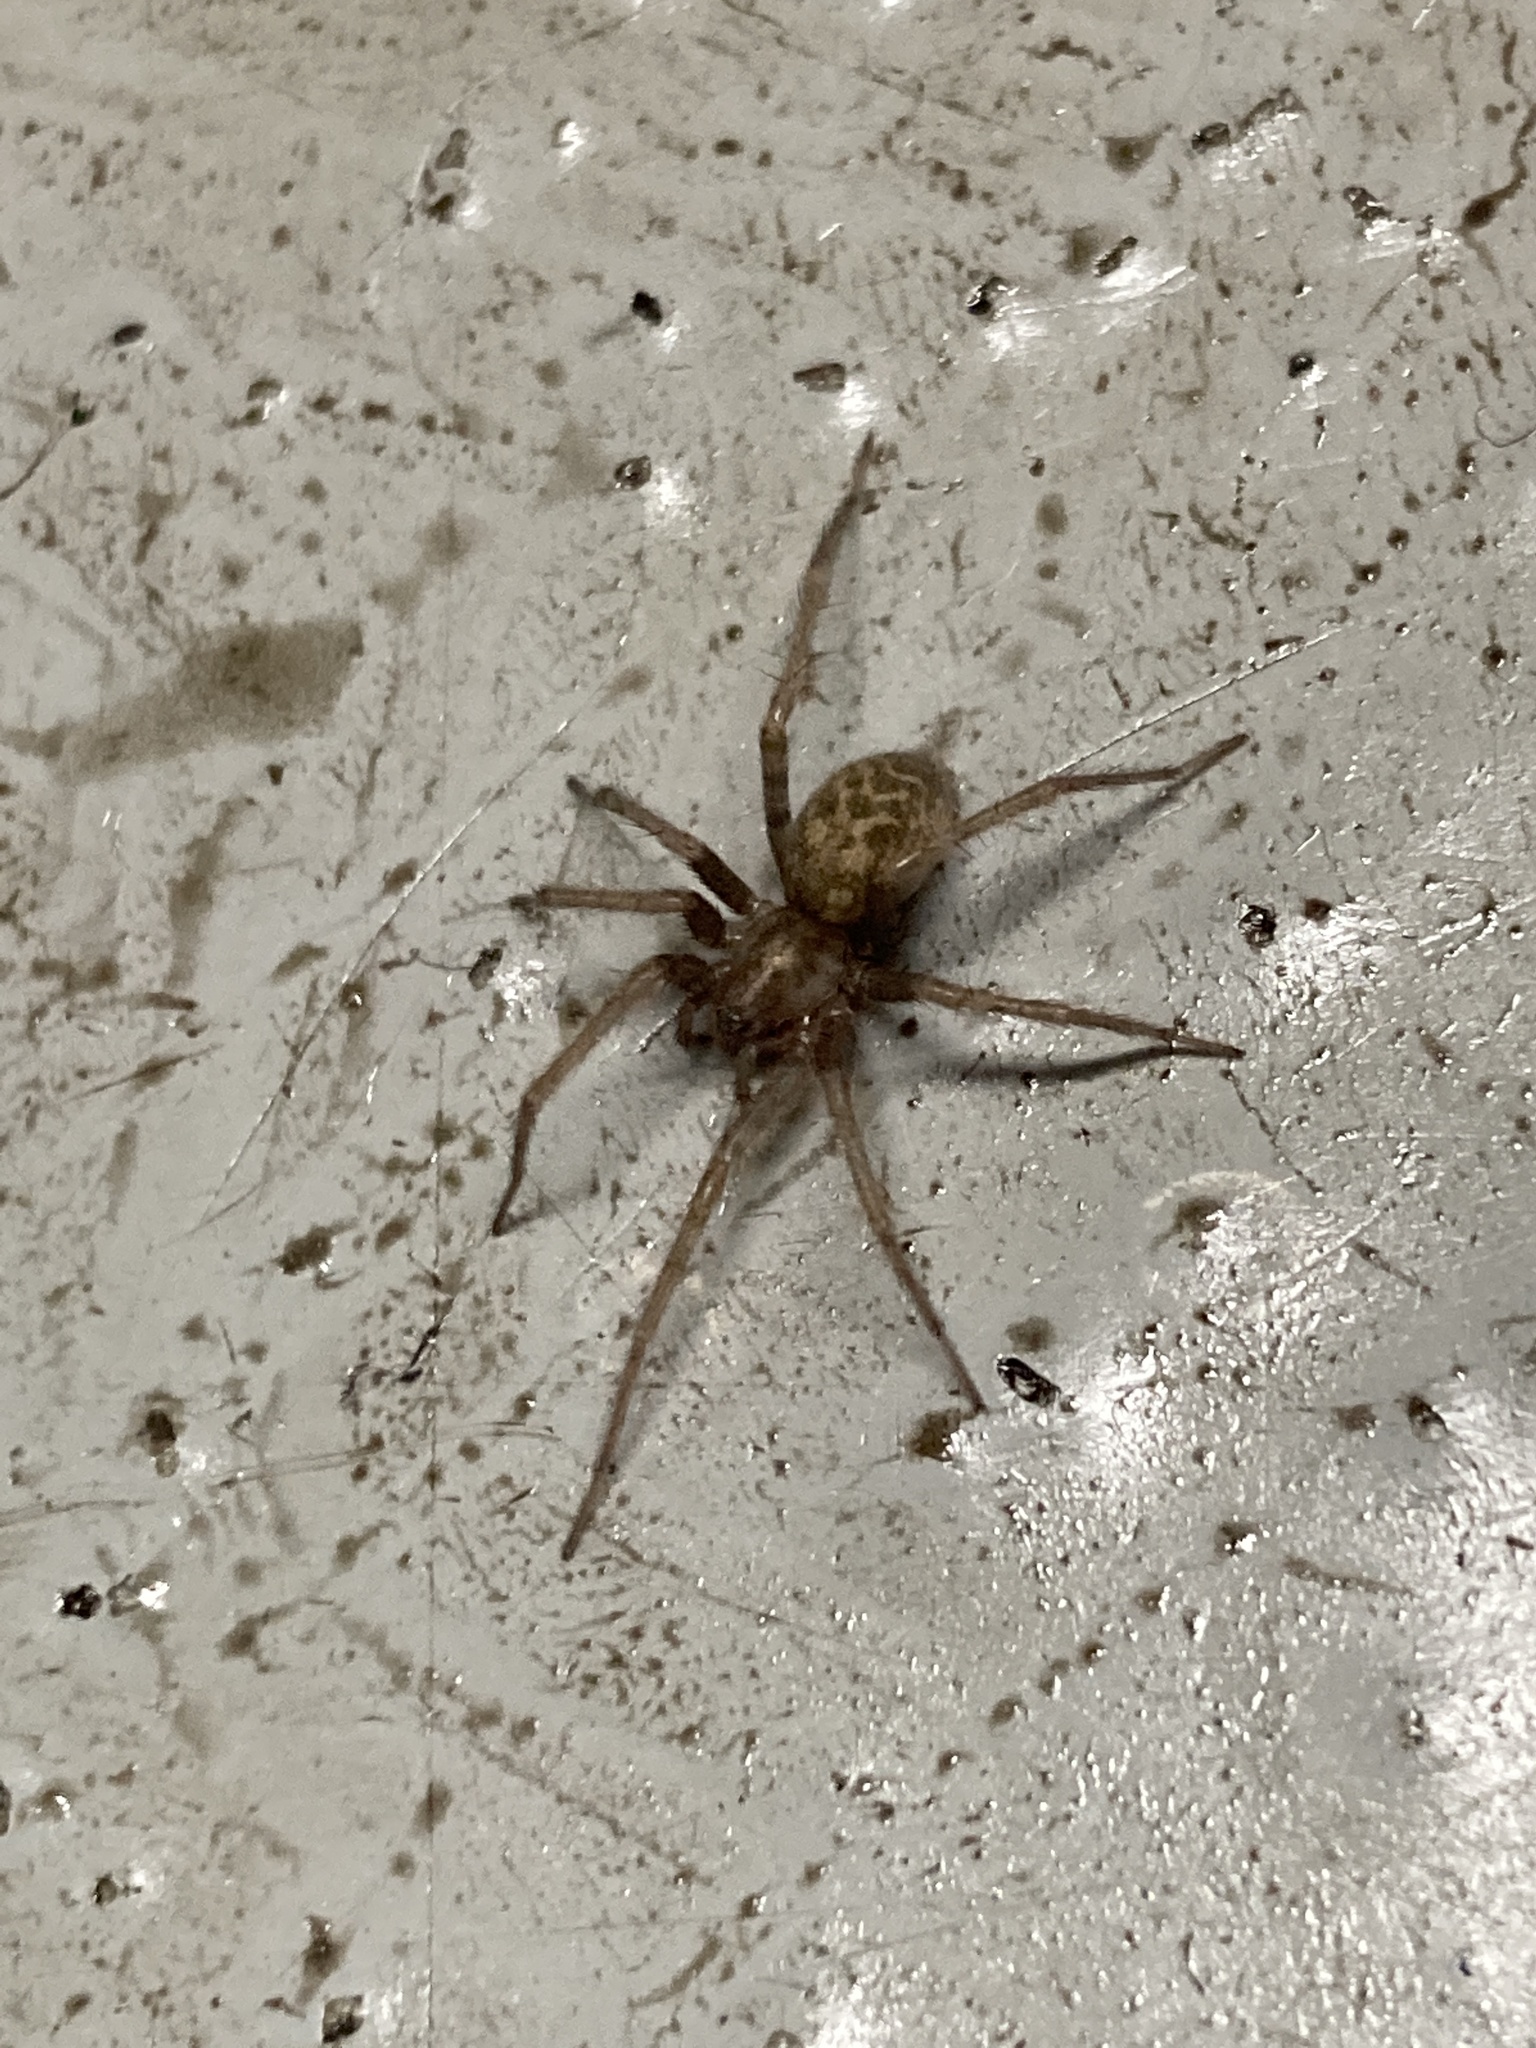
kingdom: Animalia
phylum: Arthropoda
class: Arachnida
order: Araneae
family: Agelenidae
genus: Tegenaria
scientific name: Tegenaria domestica
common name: Barn funnel weaver
